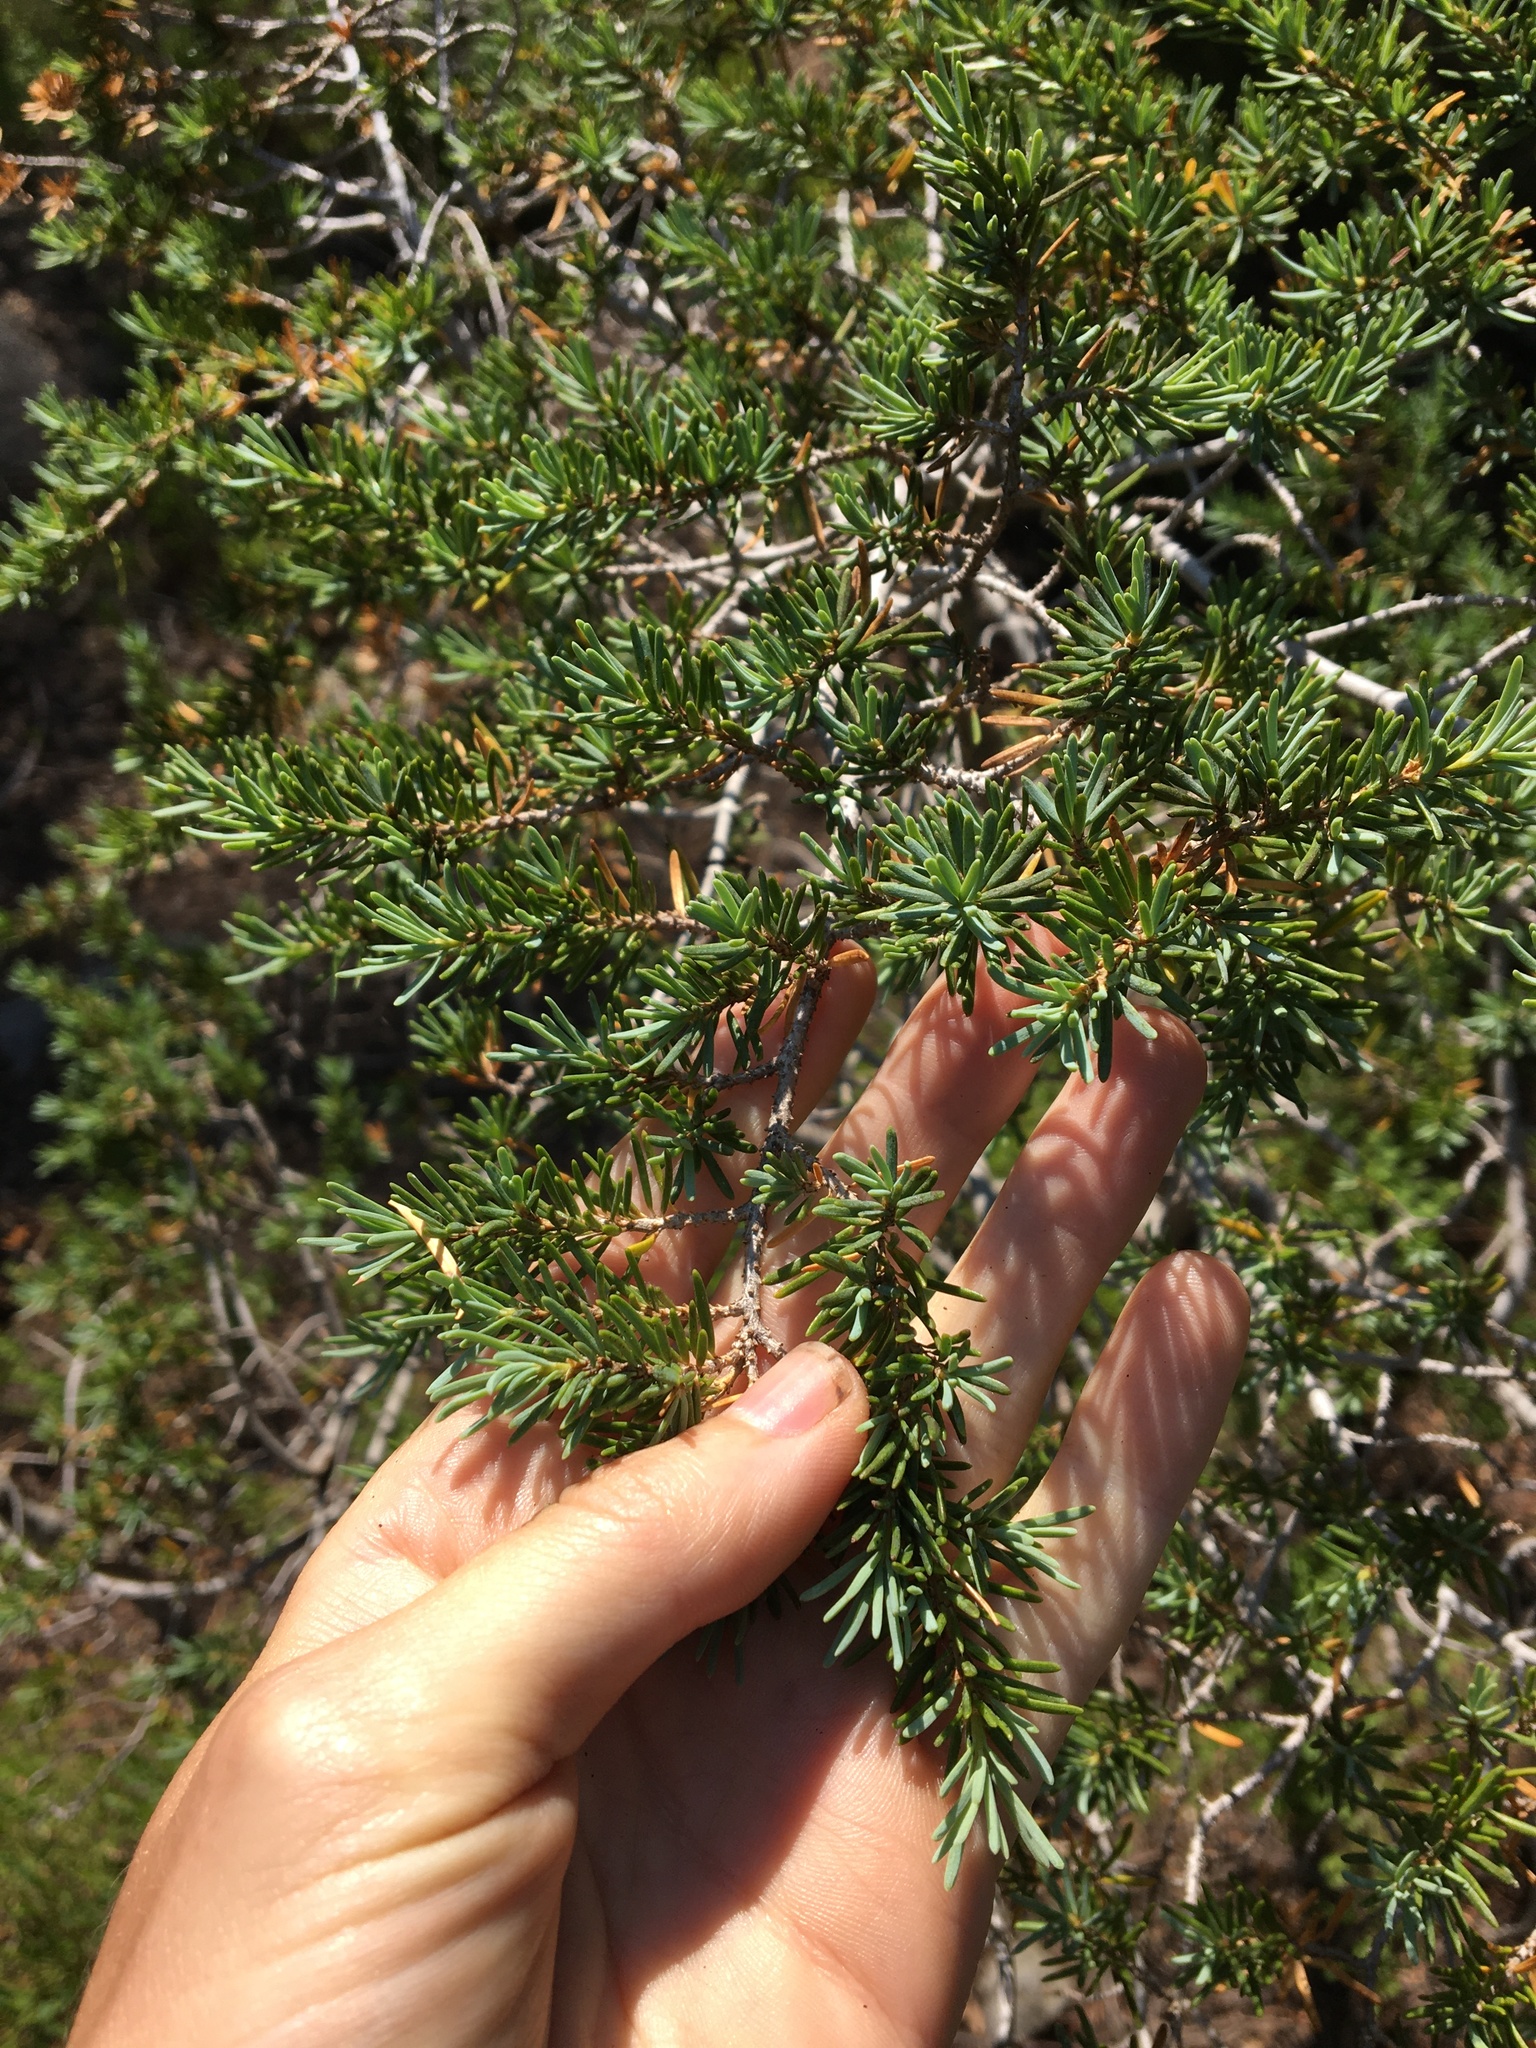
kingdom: Plantae
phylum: Tracheophyta
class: Pinopsida
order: Pinales
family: Pinaceae
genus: Tsuga
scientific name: Tsuga mertensiana
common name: Mountain hemlock
